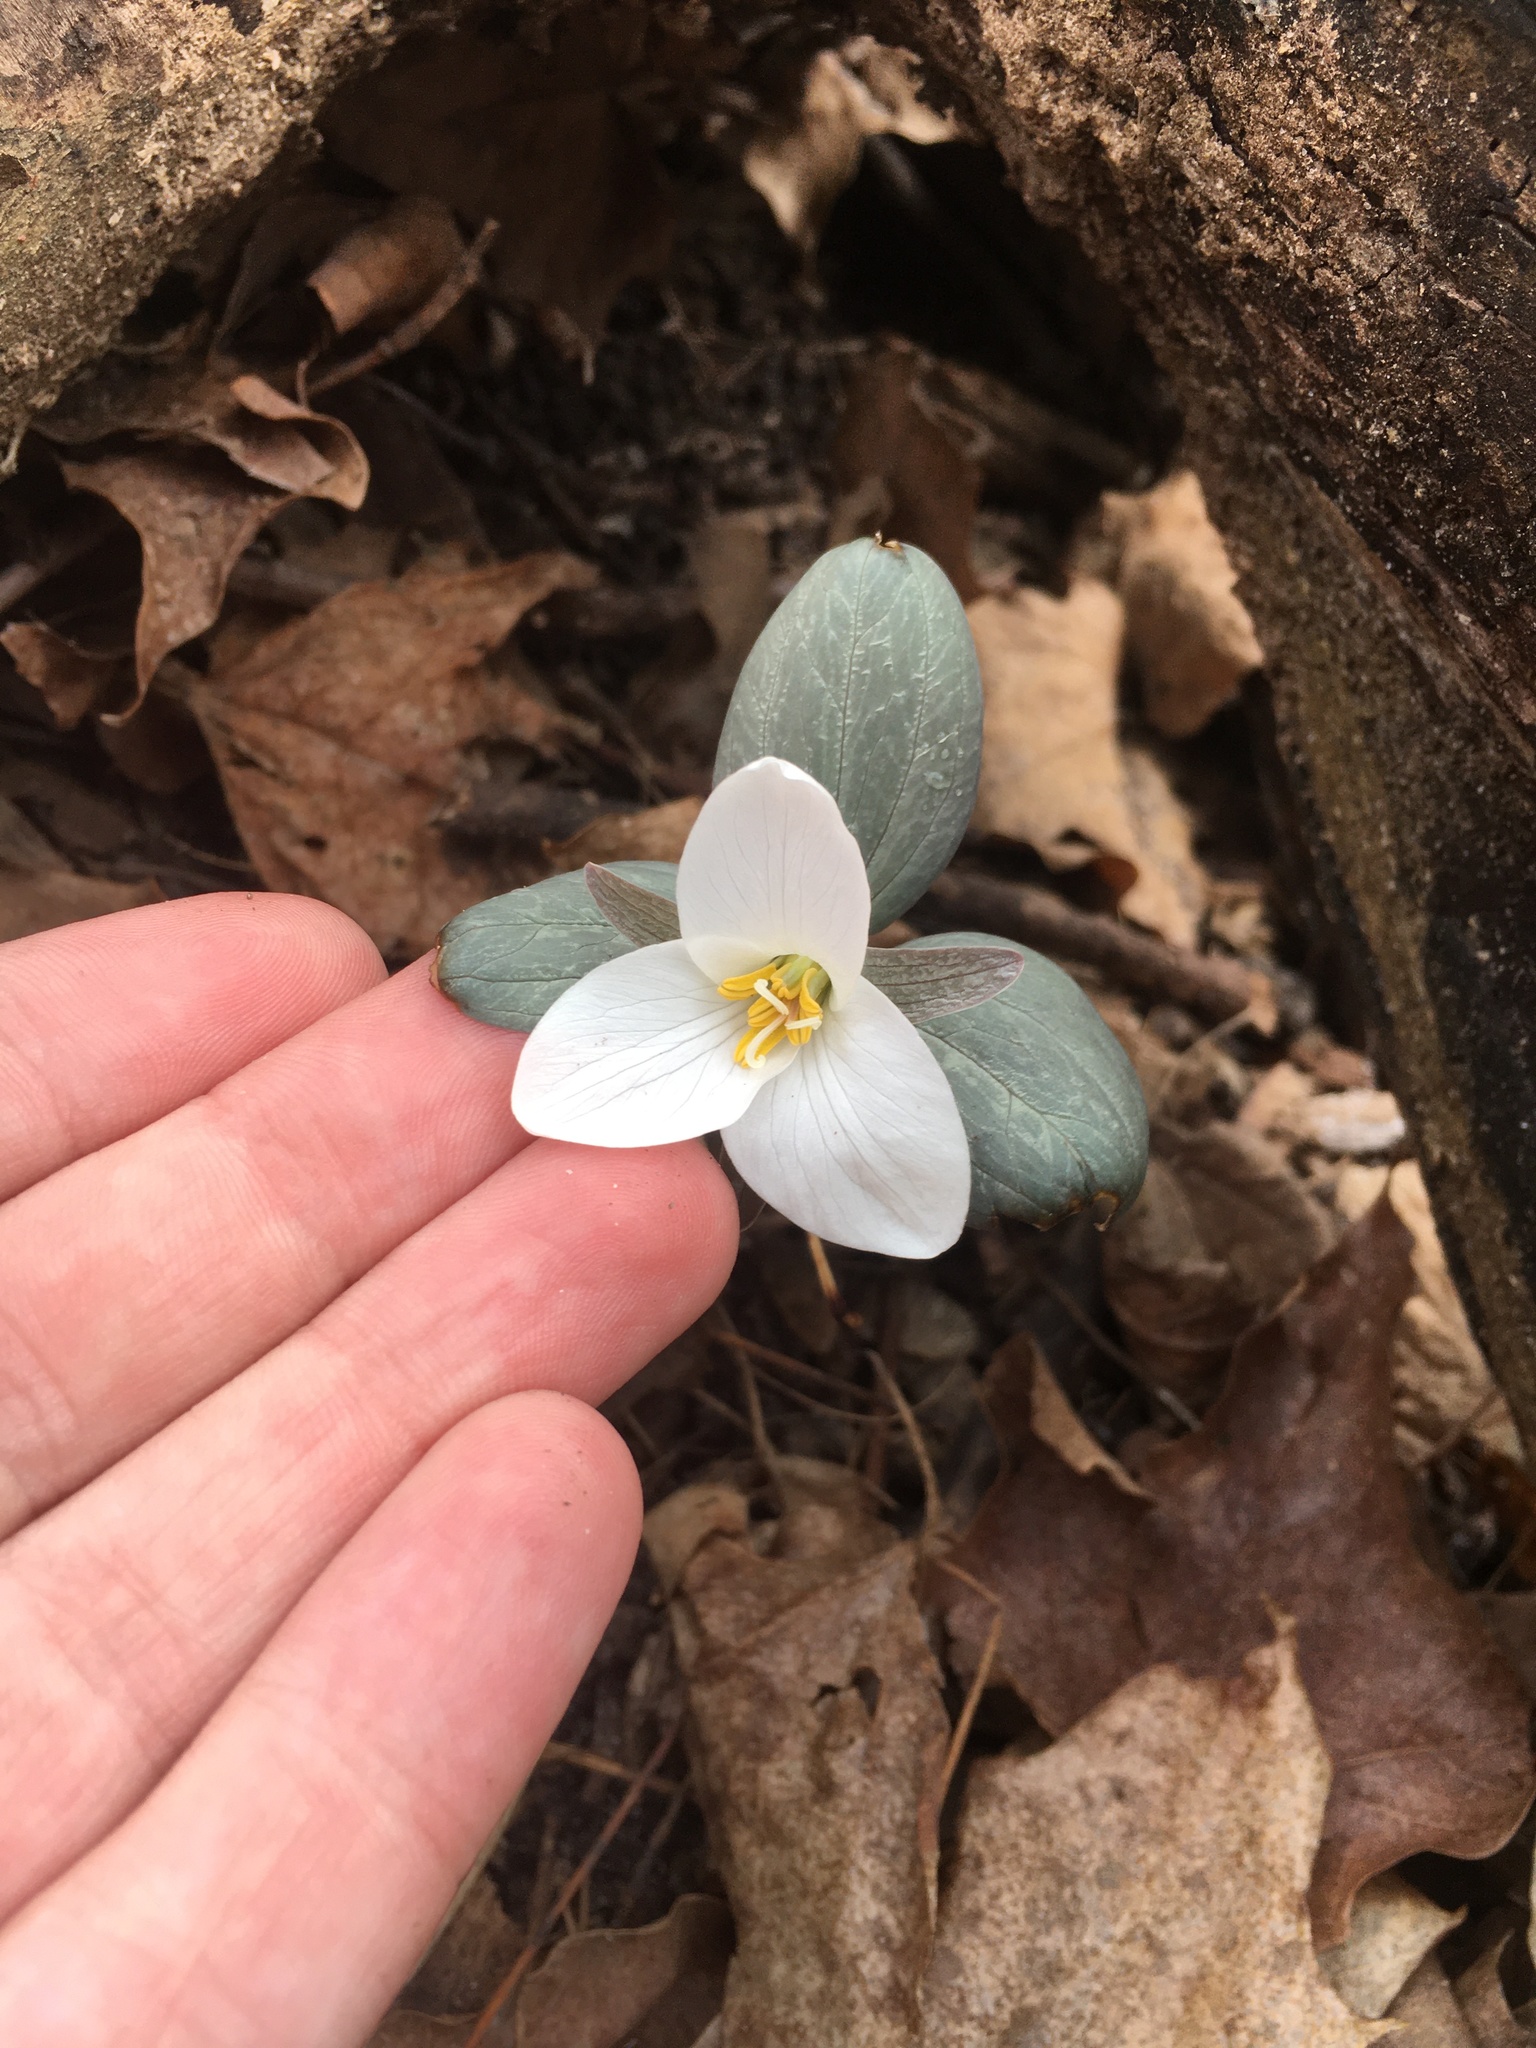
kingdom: Plantae
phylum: Tracheophyta
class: Liliopsida
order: Liliales
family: Melanthiaceae
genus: Trillium
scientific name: Trillium nivale
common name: Dwarf white trillium
